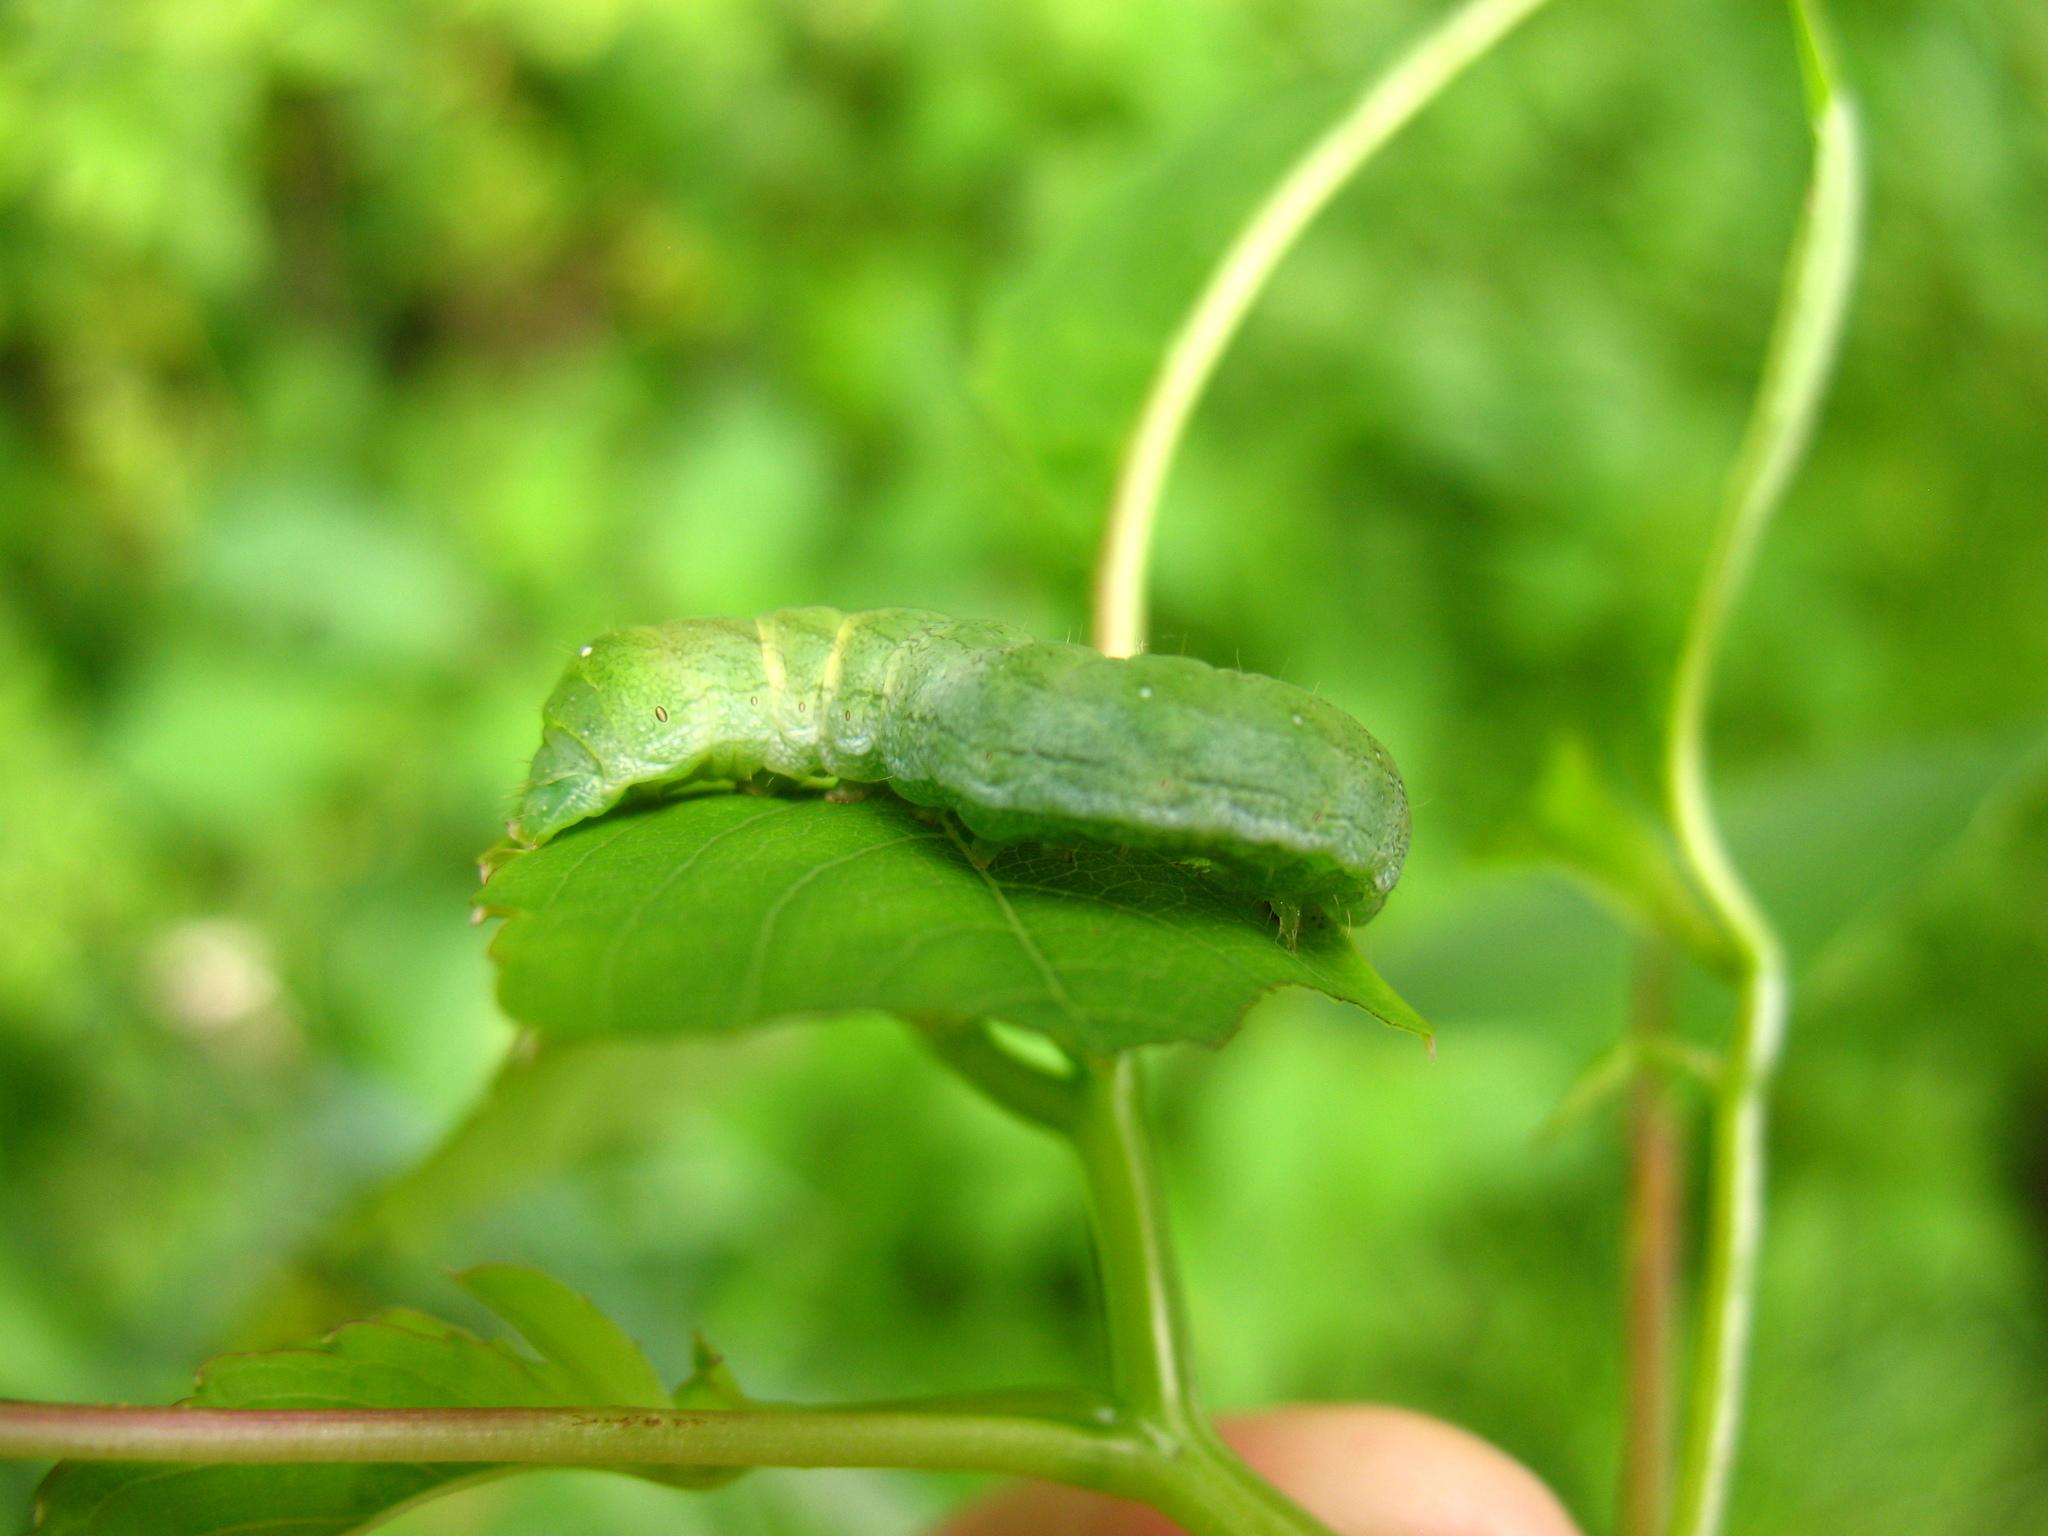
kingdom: Animalia
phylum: Arthropoda
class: Insecta
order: Lepidoptera
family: Noctuidae
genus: Euplexia
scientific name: Euplexia benesimilis
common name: American angle shades
